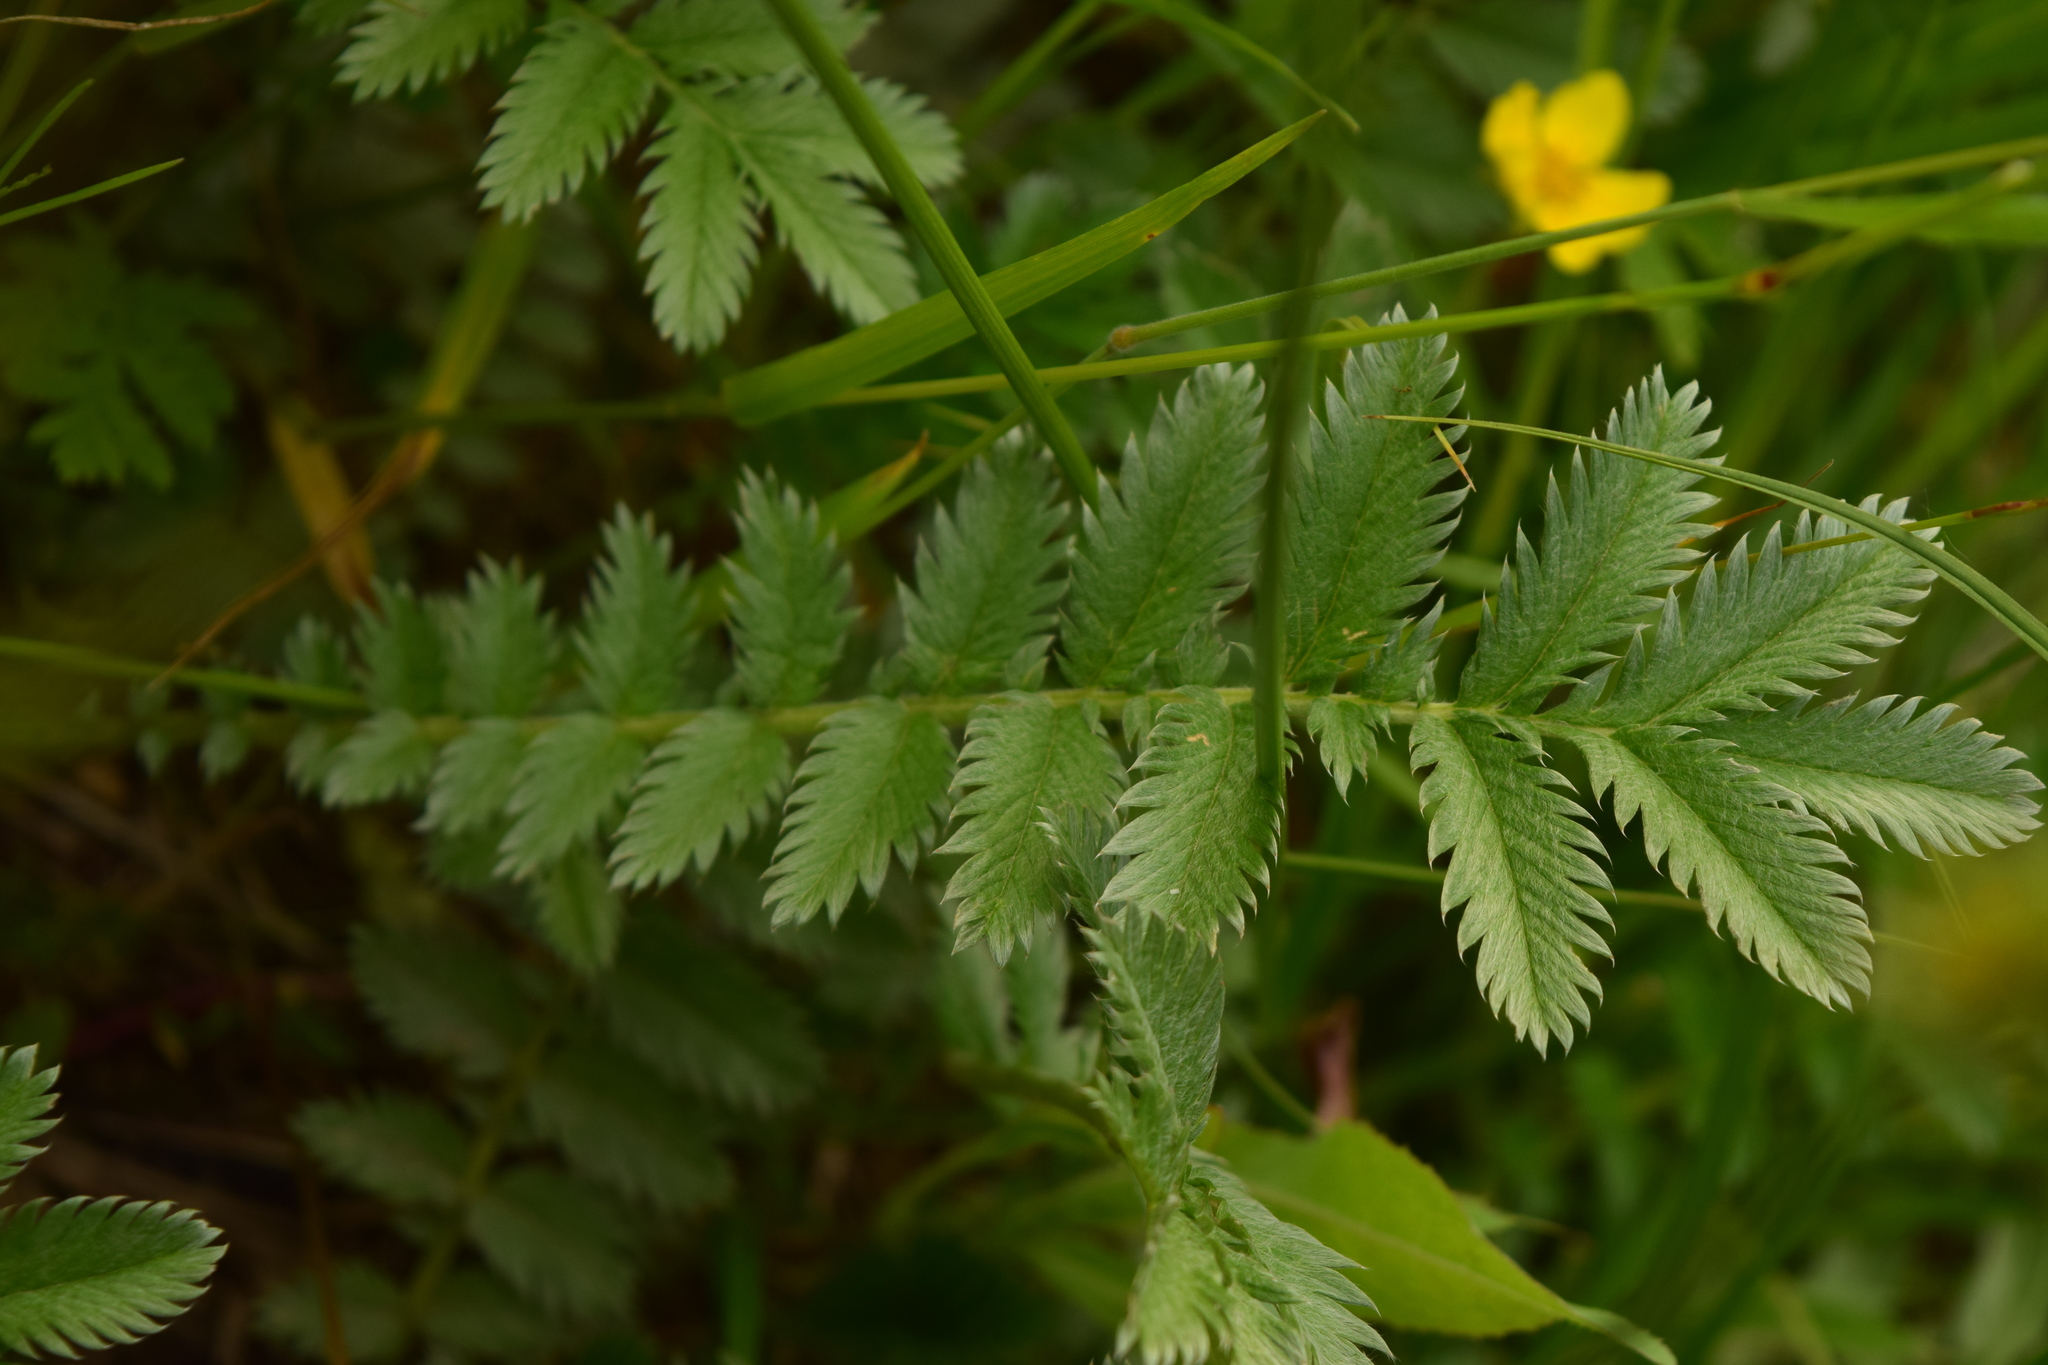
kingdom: Plantae
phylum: Tracheophyta
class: Magnoliopsida
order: Rosales
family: Rosaceae
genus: Argentina
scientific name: Argentina anserina
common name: Common silverweed
